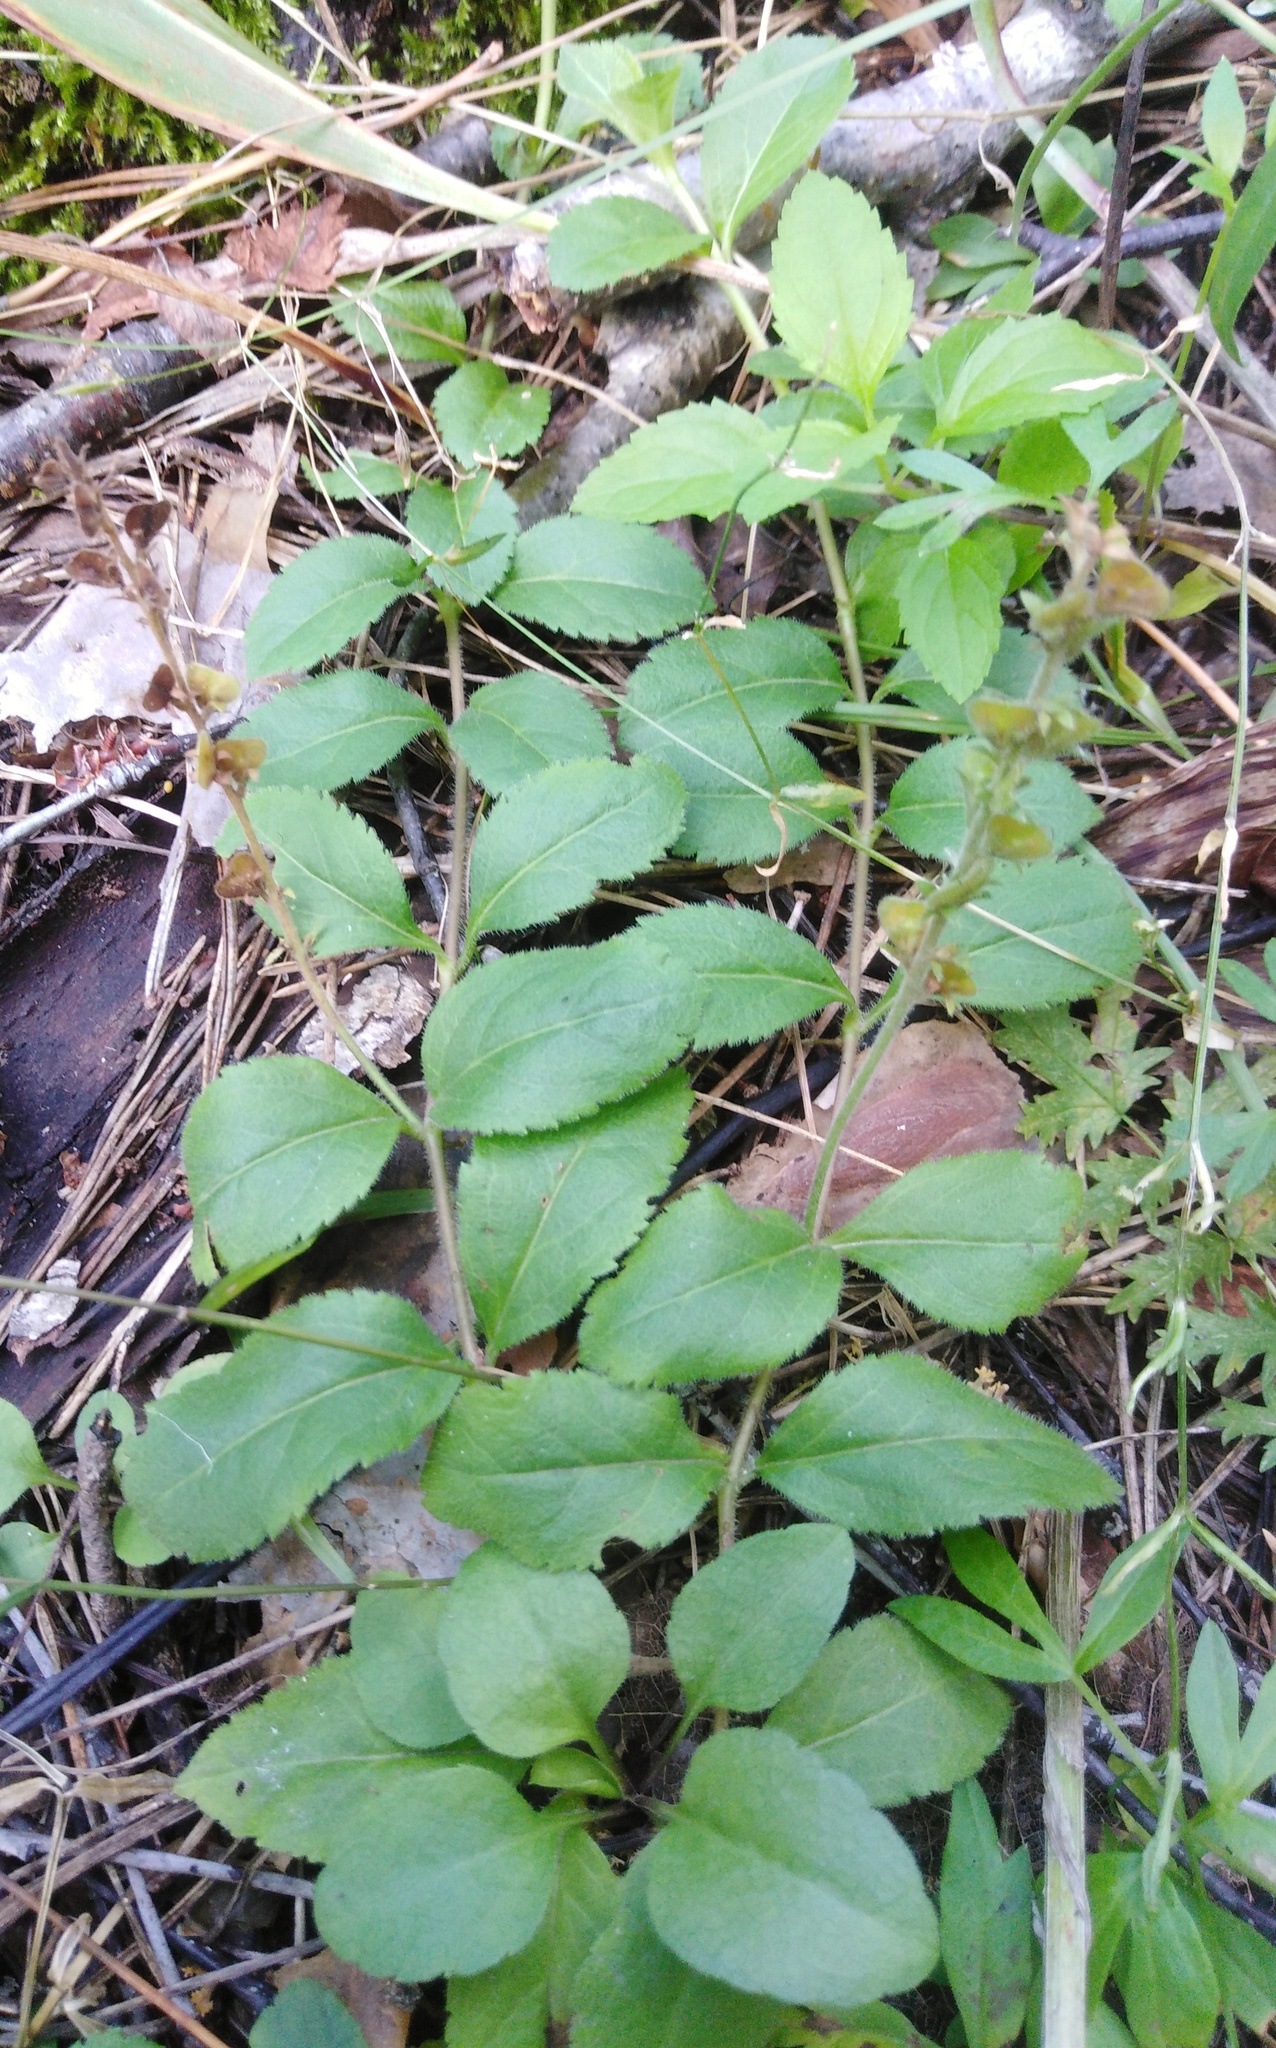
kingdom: Plantae
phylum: Tracheophyta
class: Magnoliopsida
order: Lamiales
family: Plantaginaceae
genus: Veronica
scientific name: Veronica officinalis
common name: Common speedwell
